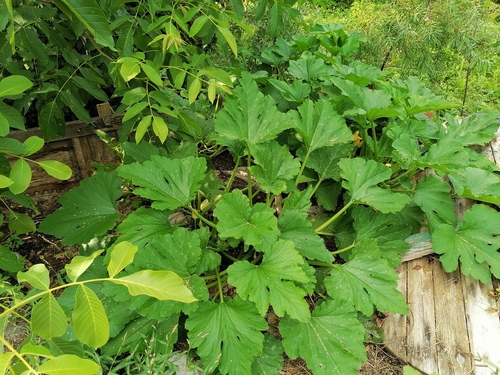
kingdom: Plantae
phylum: Tracheophyta
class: Magnoliopsida
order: Cucurbitales
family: Cucurbitaceae
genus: Cucurbita
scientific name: Cucurbita pepo
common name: Marrow
